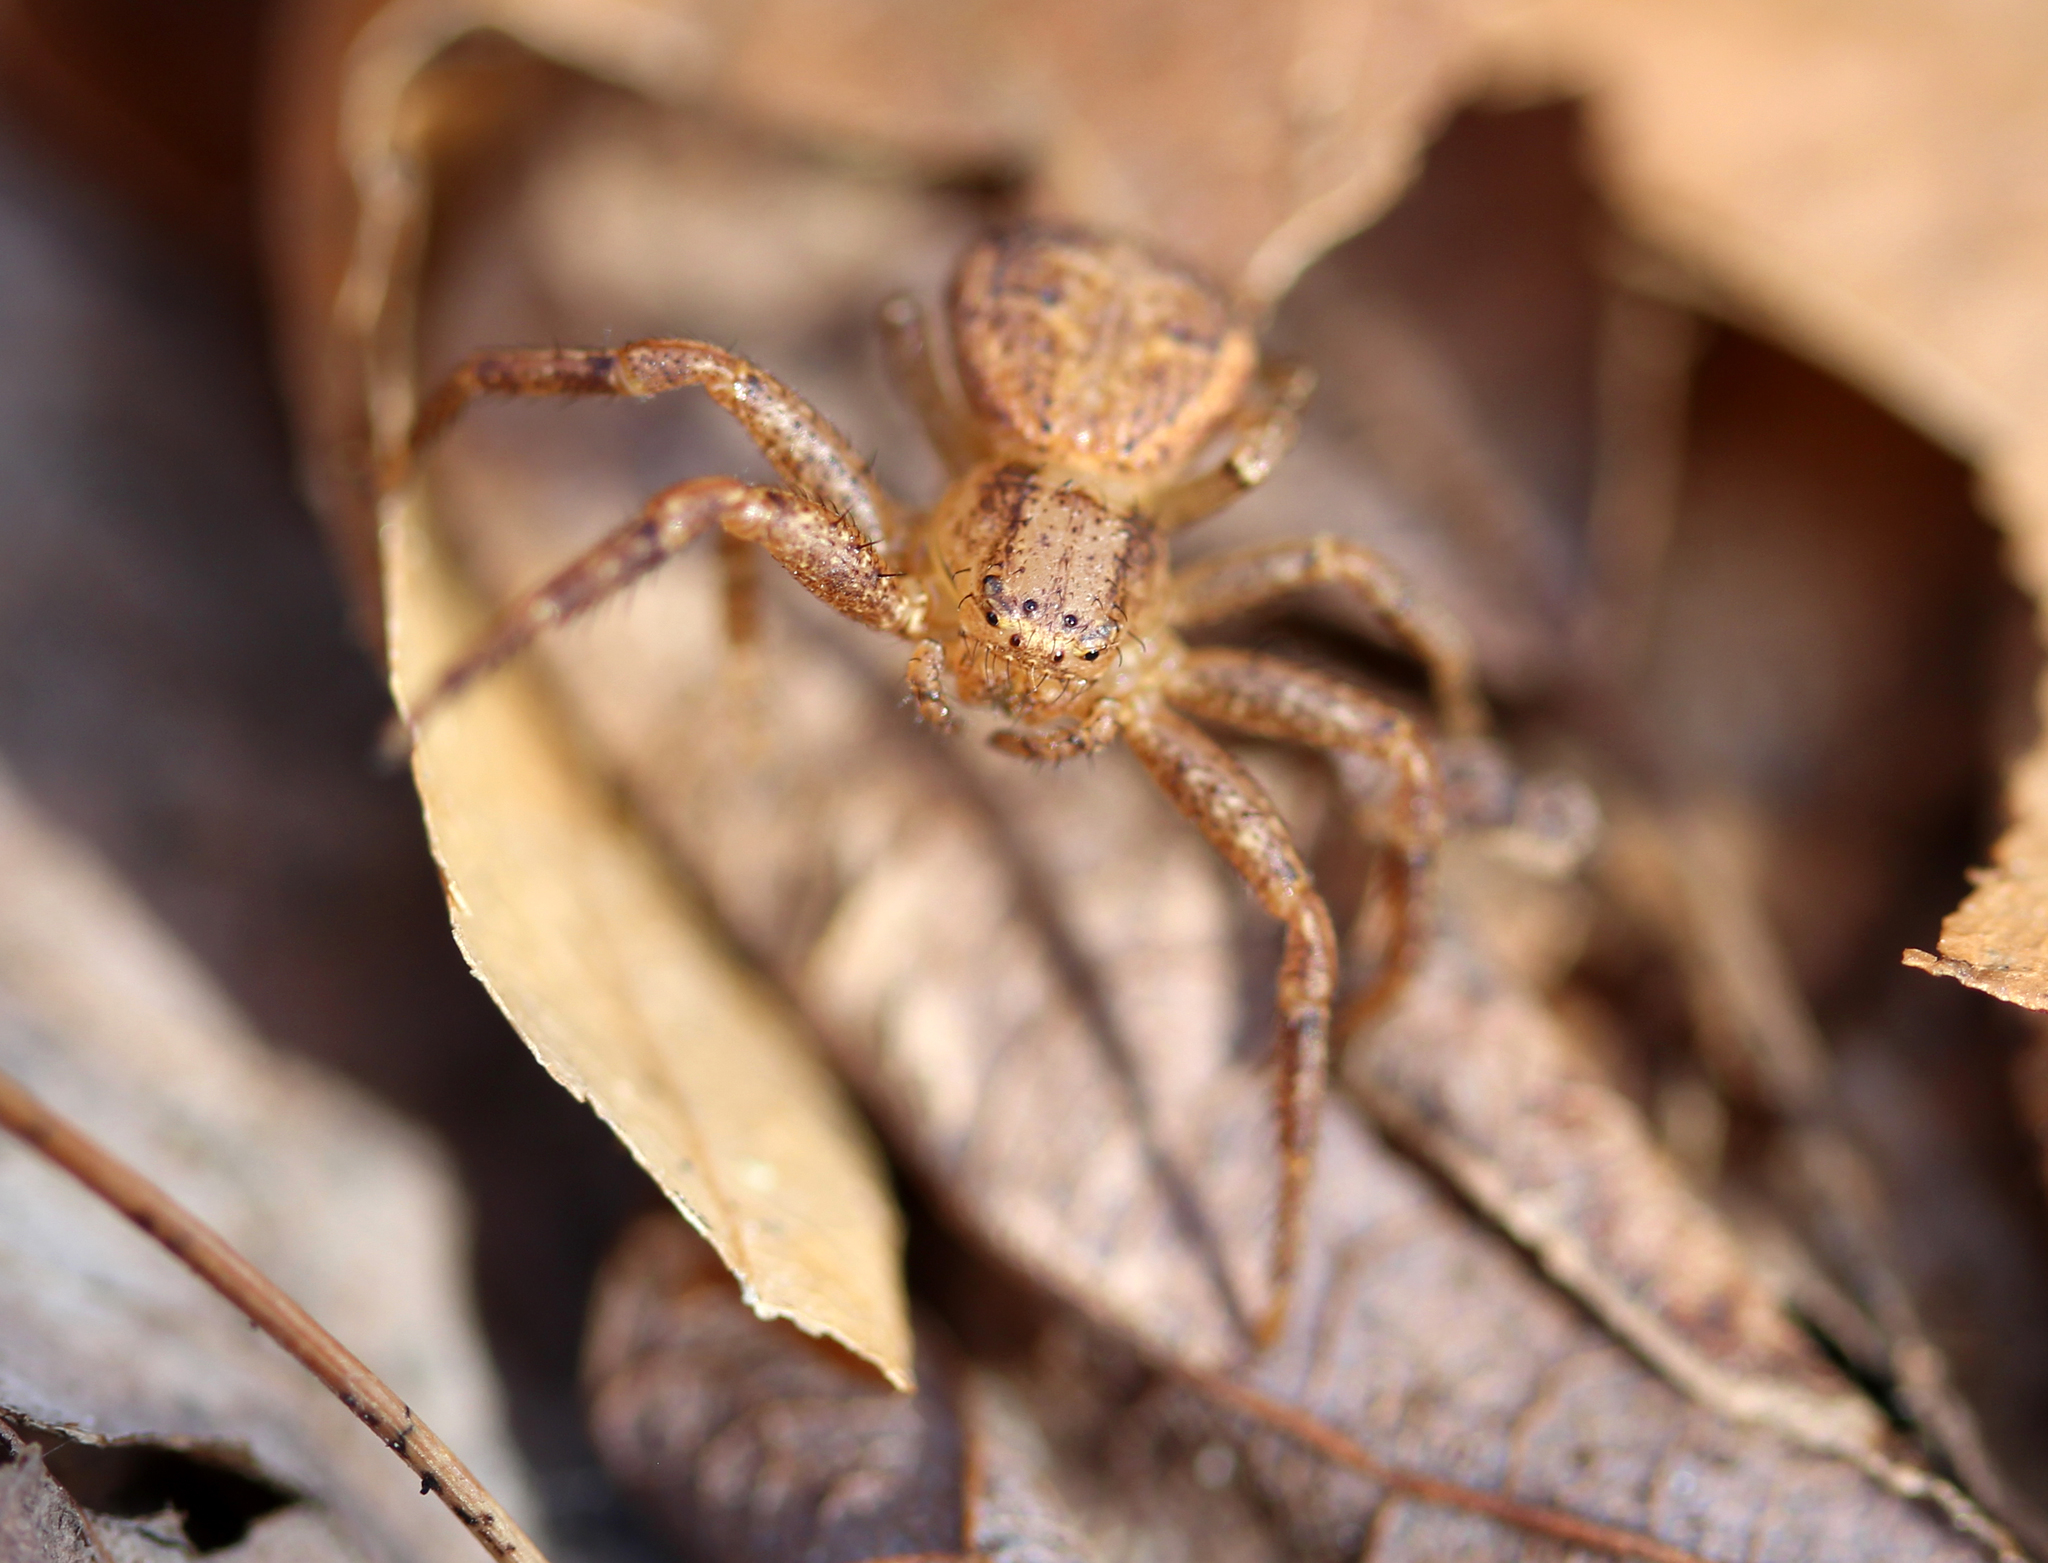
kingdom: Animalia
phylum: Arthropoda
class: Arachnida
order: Araneae
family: Thomisidae
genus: Xysticus
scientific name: Xysticus ferox
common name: Tan crab spider
